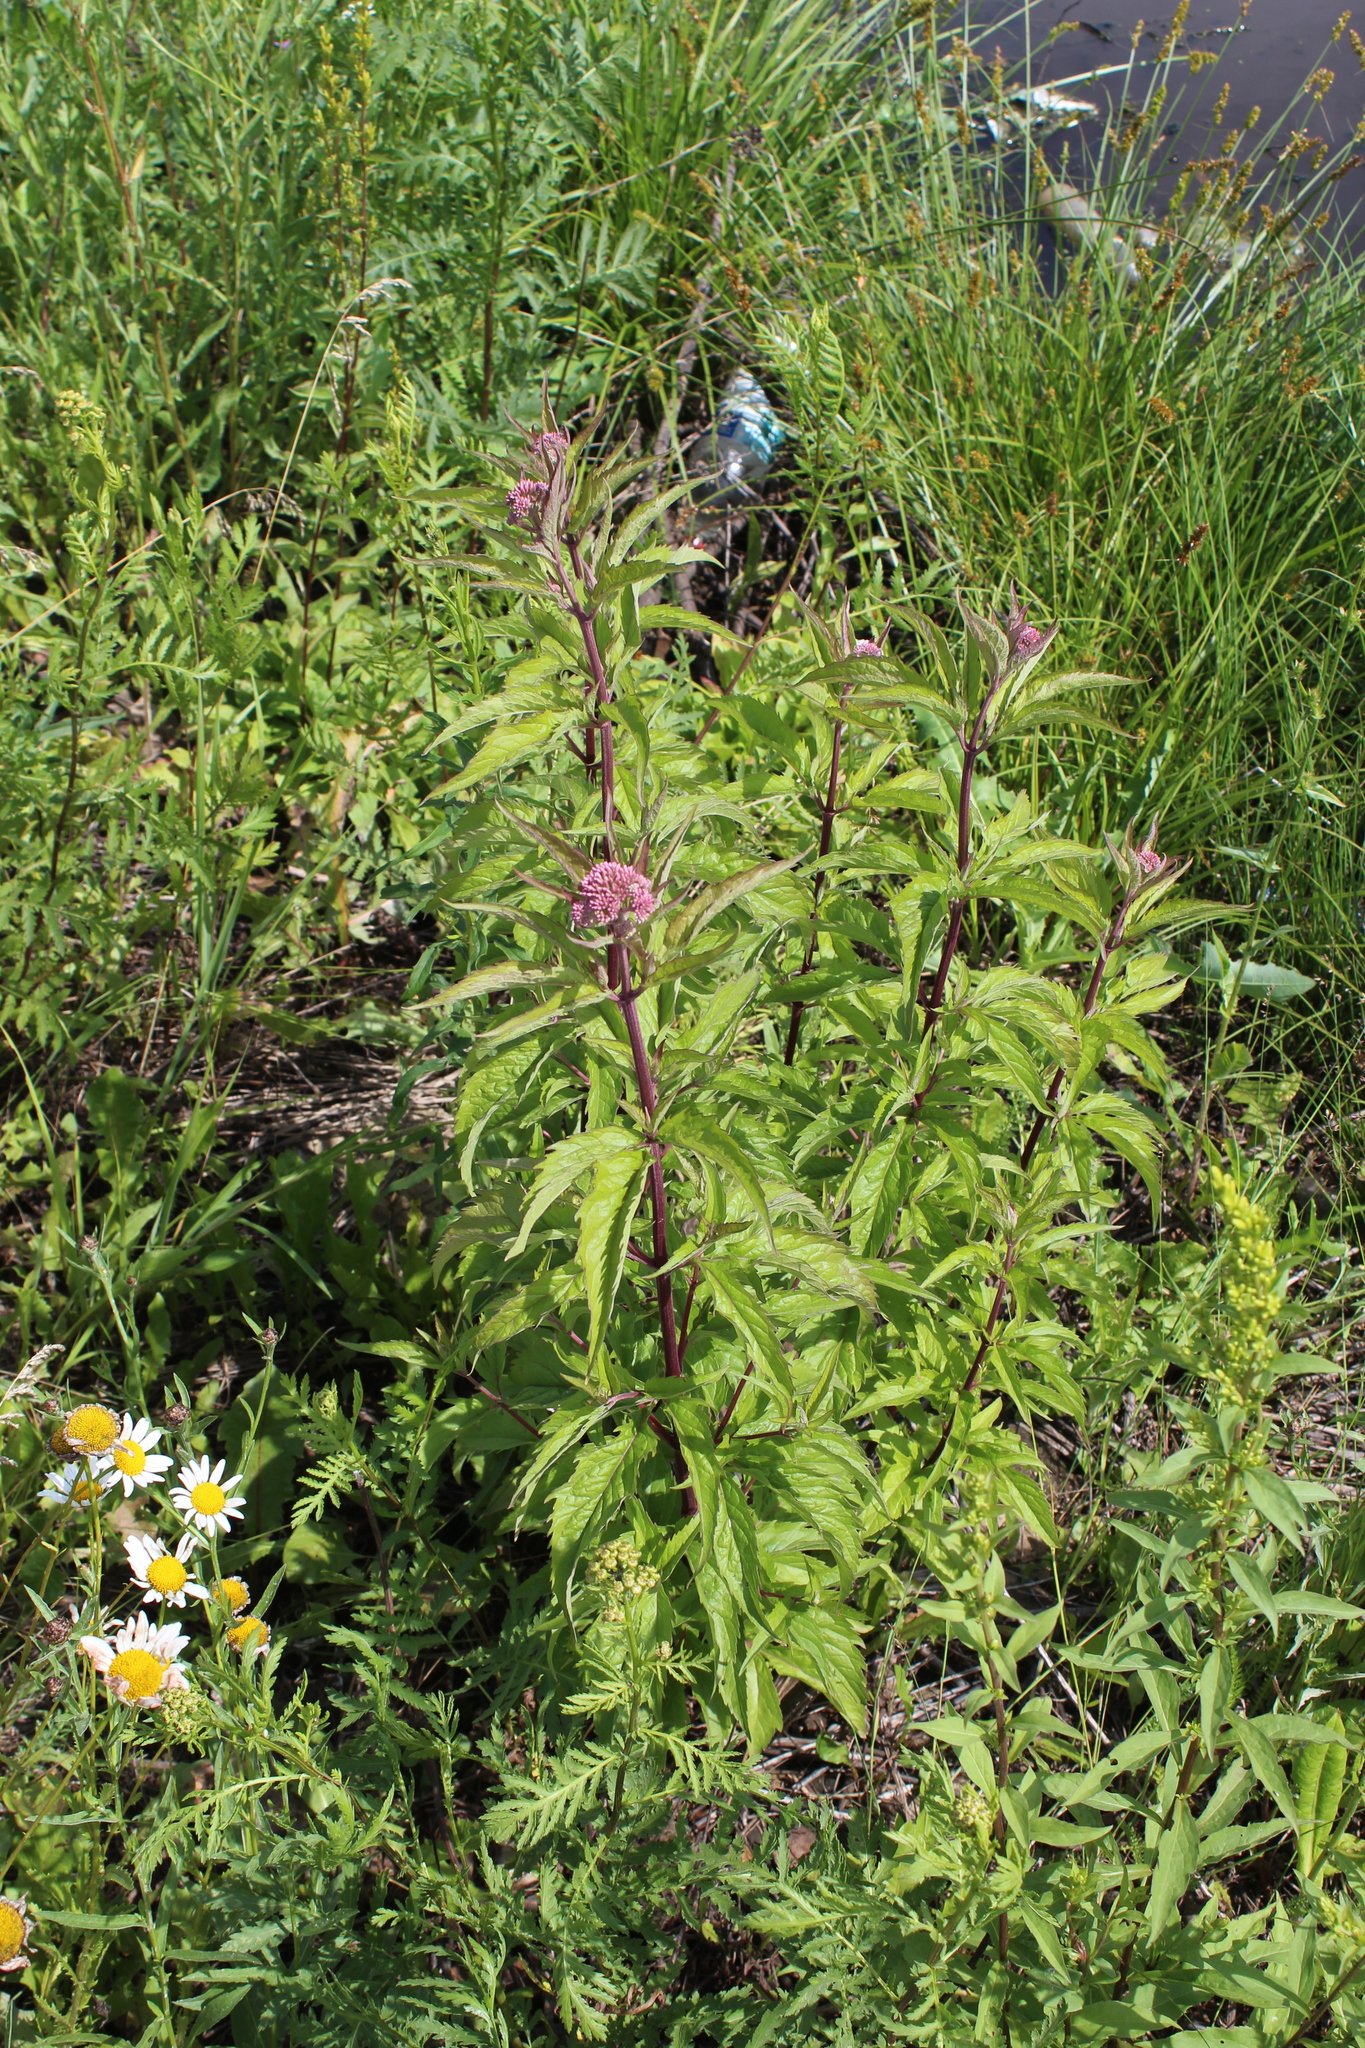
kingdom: Plantae
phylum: Tracheophyta
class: Magnoliopsida
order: Asterales
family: Asteraceae
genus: Eupatorium
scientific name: Eupatorium cannabinum
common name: Hemp-agrimony
